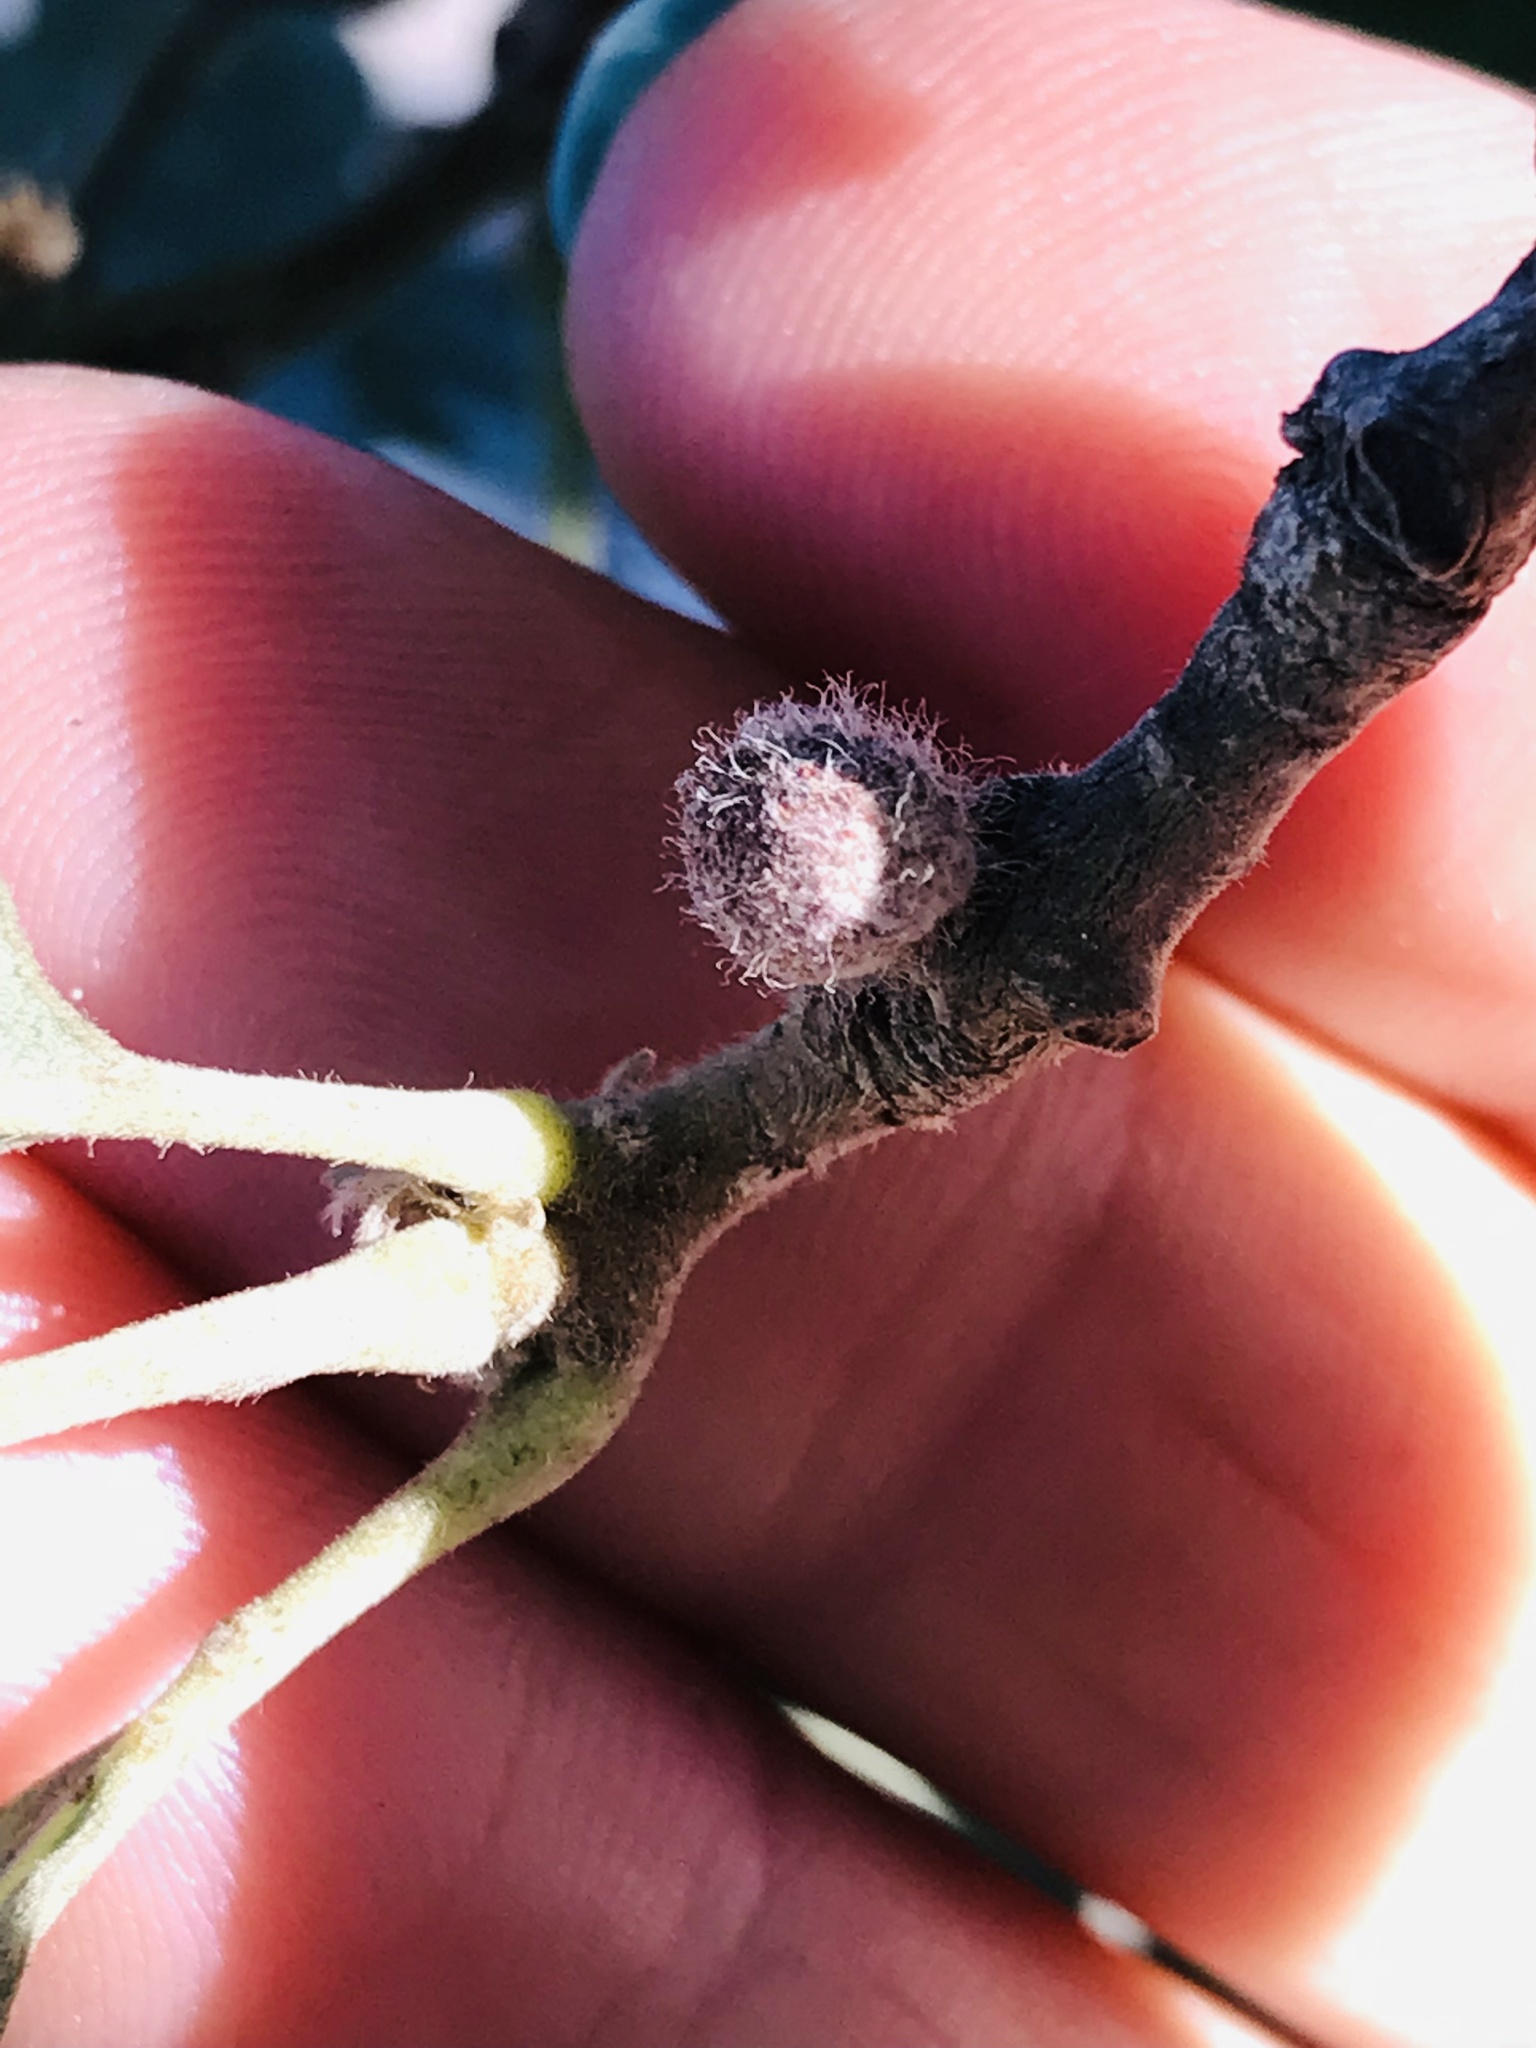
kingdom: Animalia
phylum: Arthropoda
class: Insecta
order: Hymenoptera
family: Cynipidae
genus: Burnettweldia
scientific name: Burnettweldia
